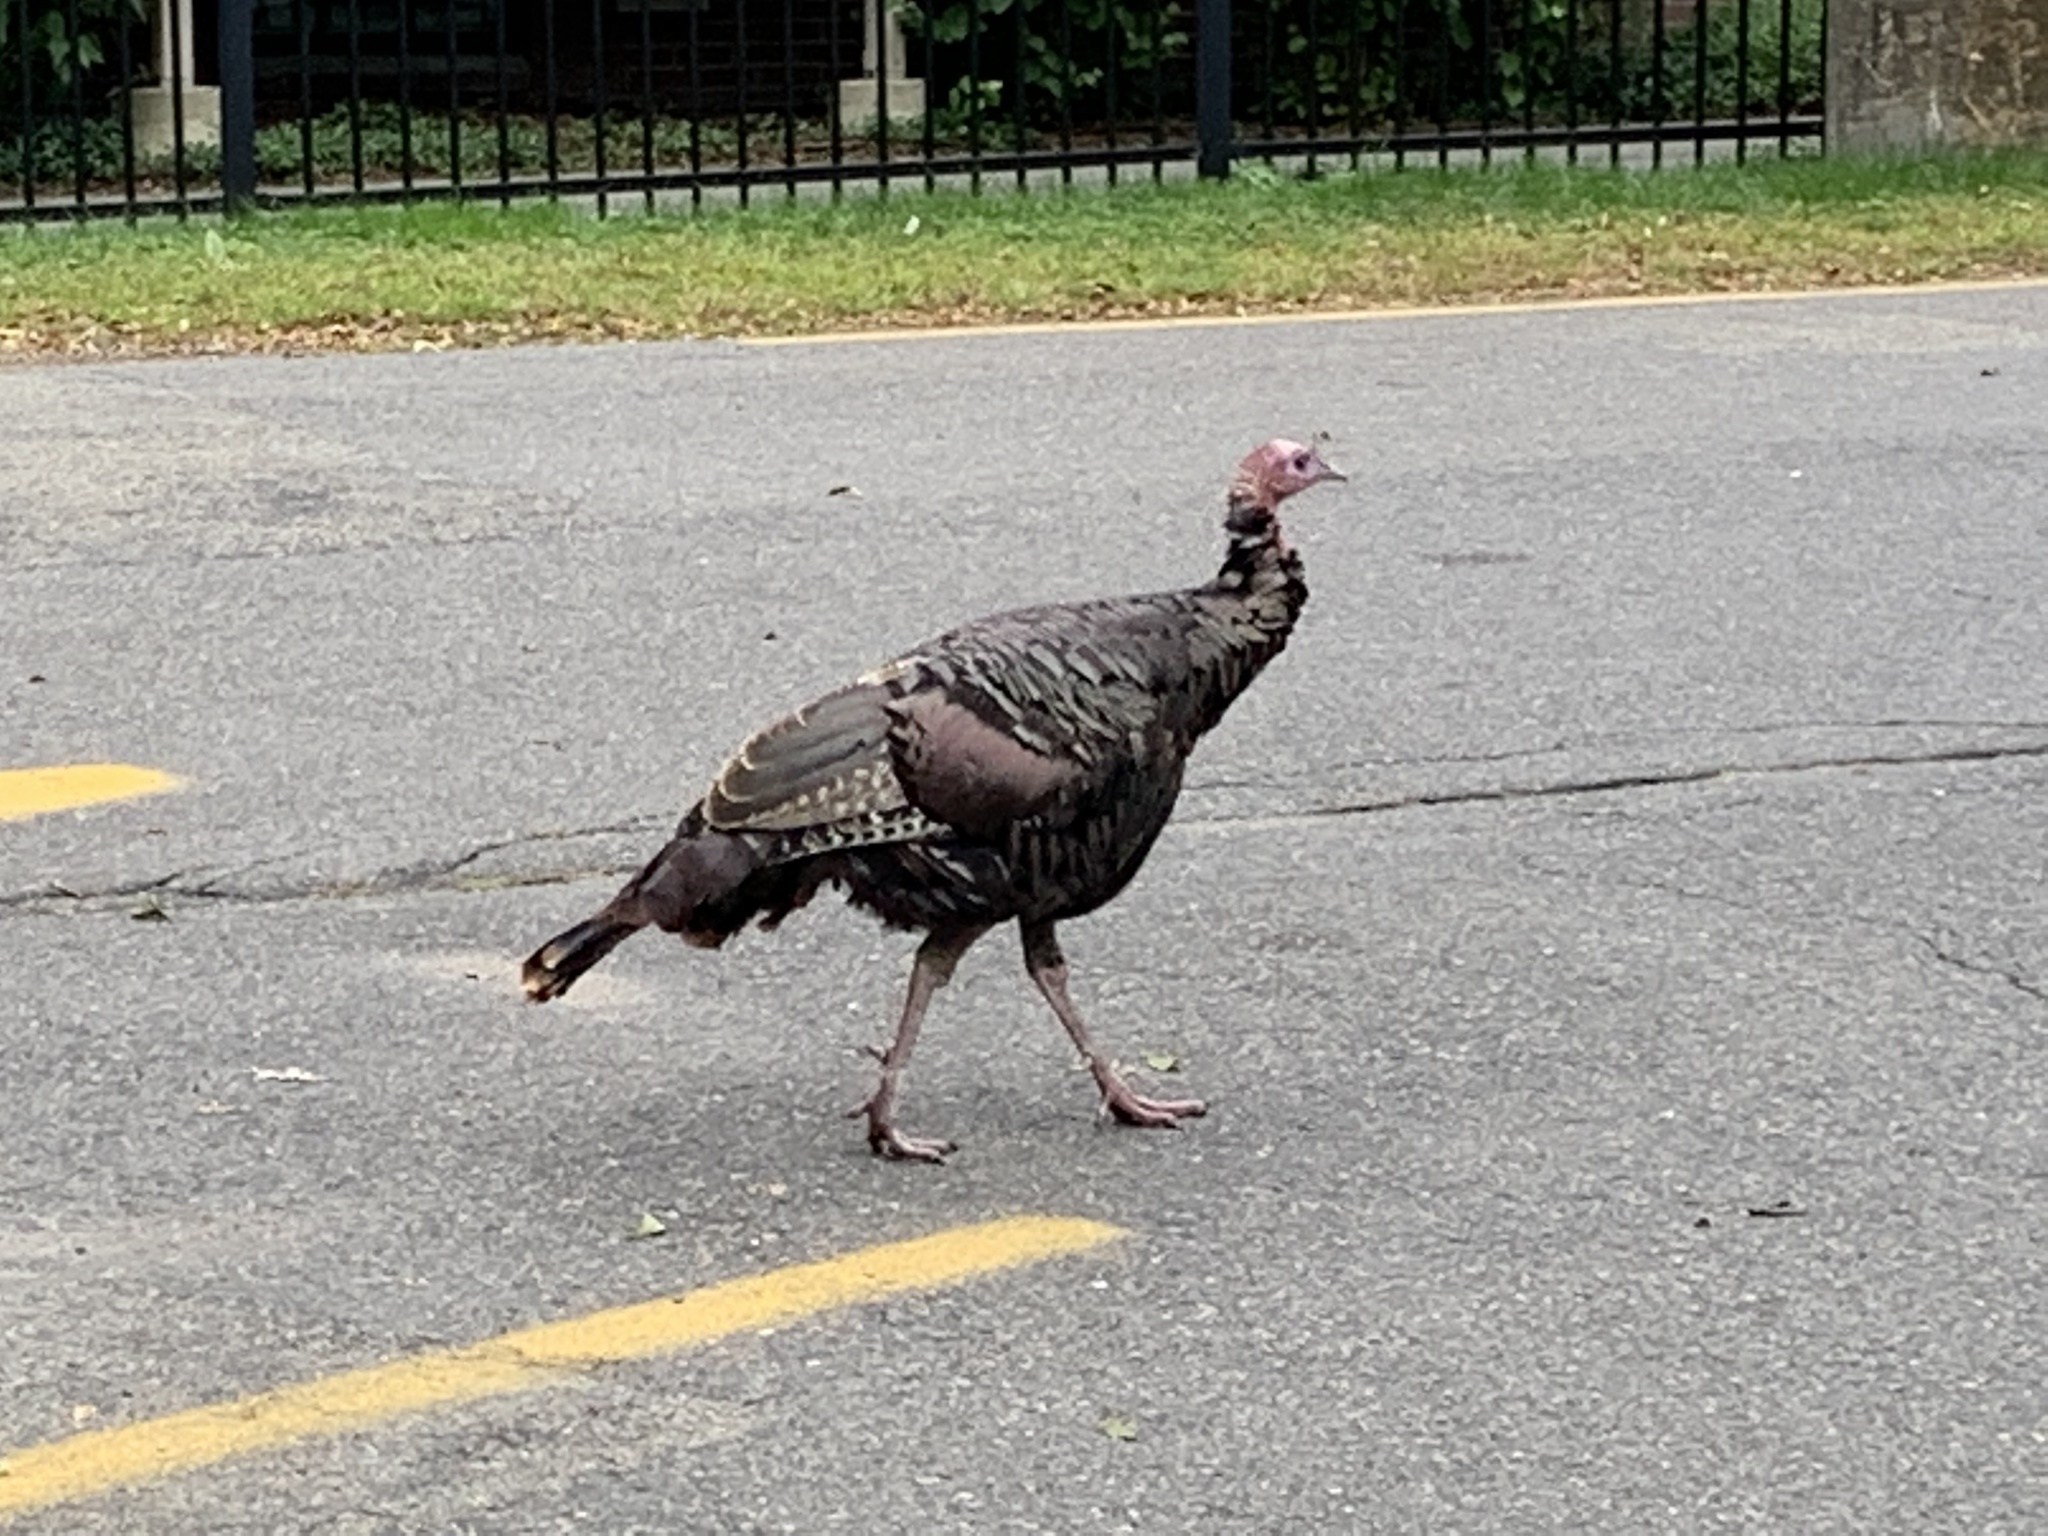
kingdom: Animalia
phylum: Chordata
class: Aves
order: Galliformes
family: Phasianidae
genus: Meleagris
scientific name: Meleagris gallopavo
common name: Wild turkey
